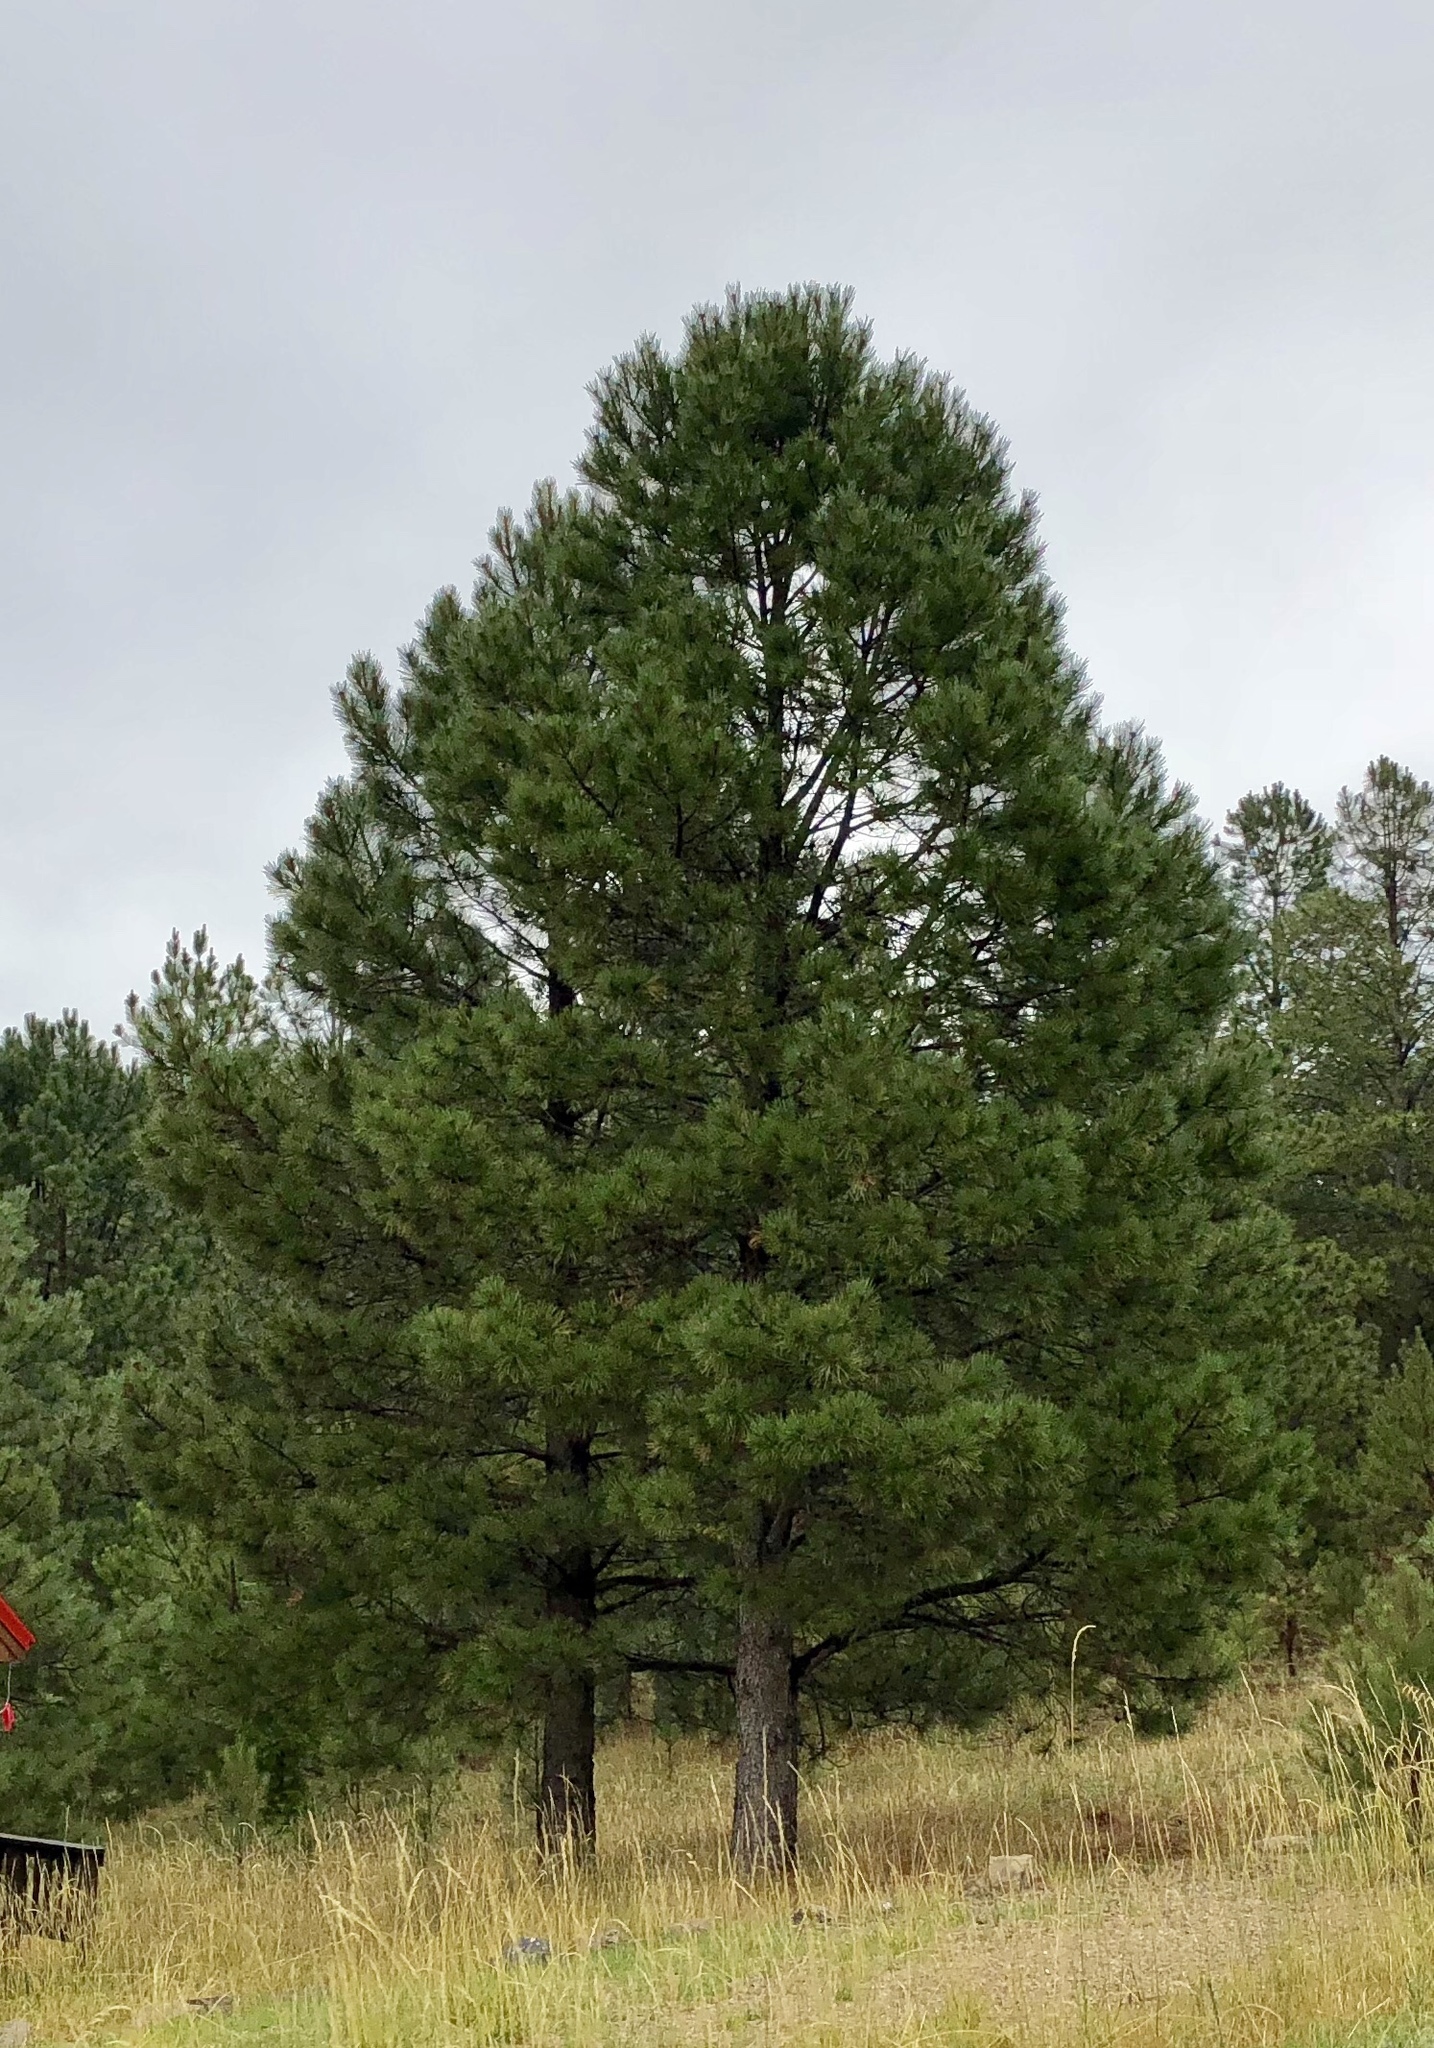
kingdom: Plantae
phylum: Tracheophyta
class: Pinopsida
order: Pinales
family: Pinaceae
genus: Pinus
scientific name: Pinus ponderosa
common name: Western yellow-pine
